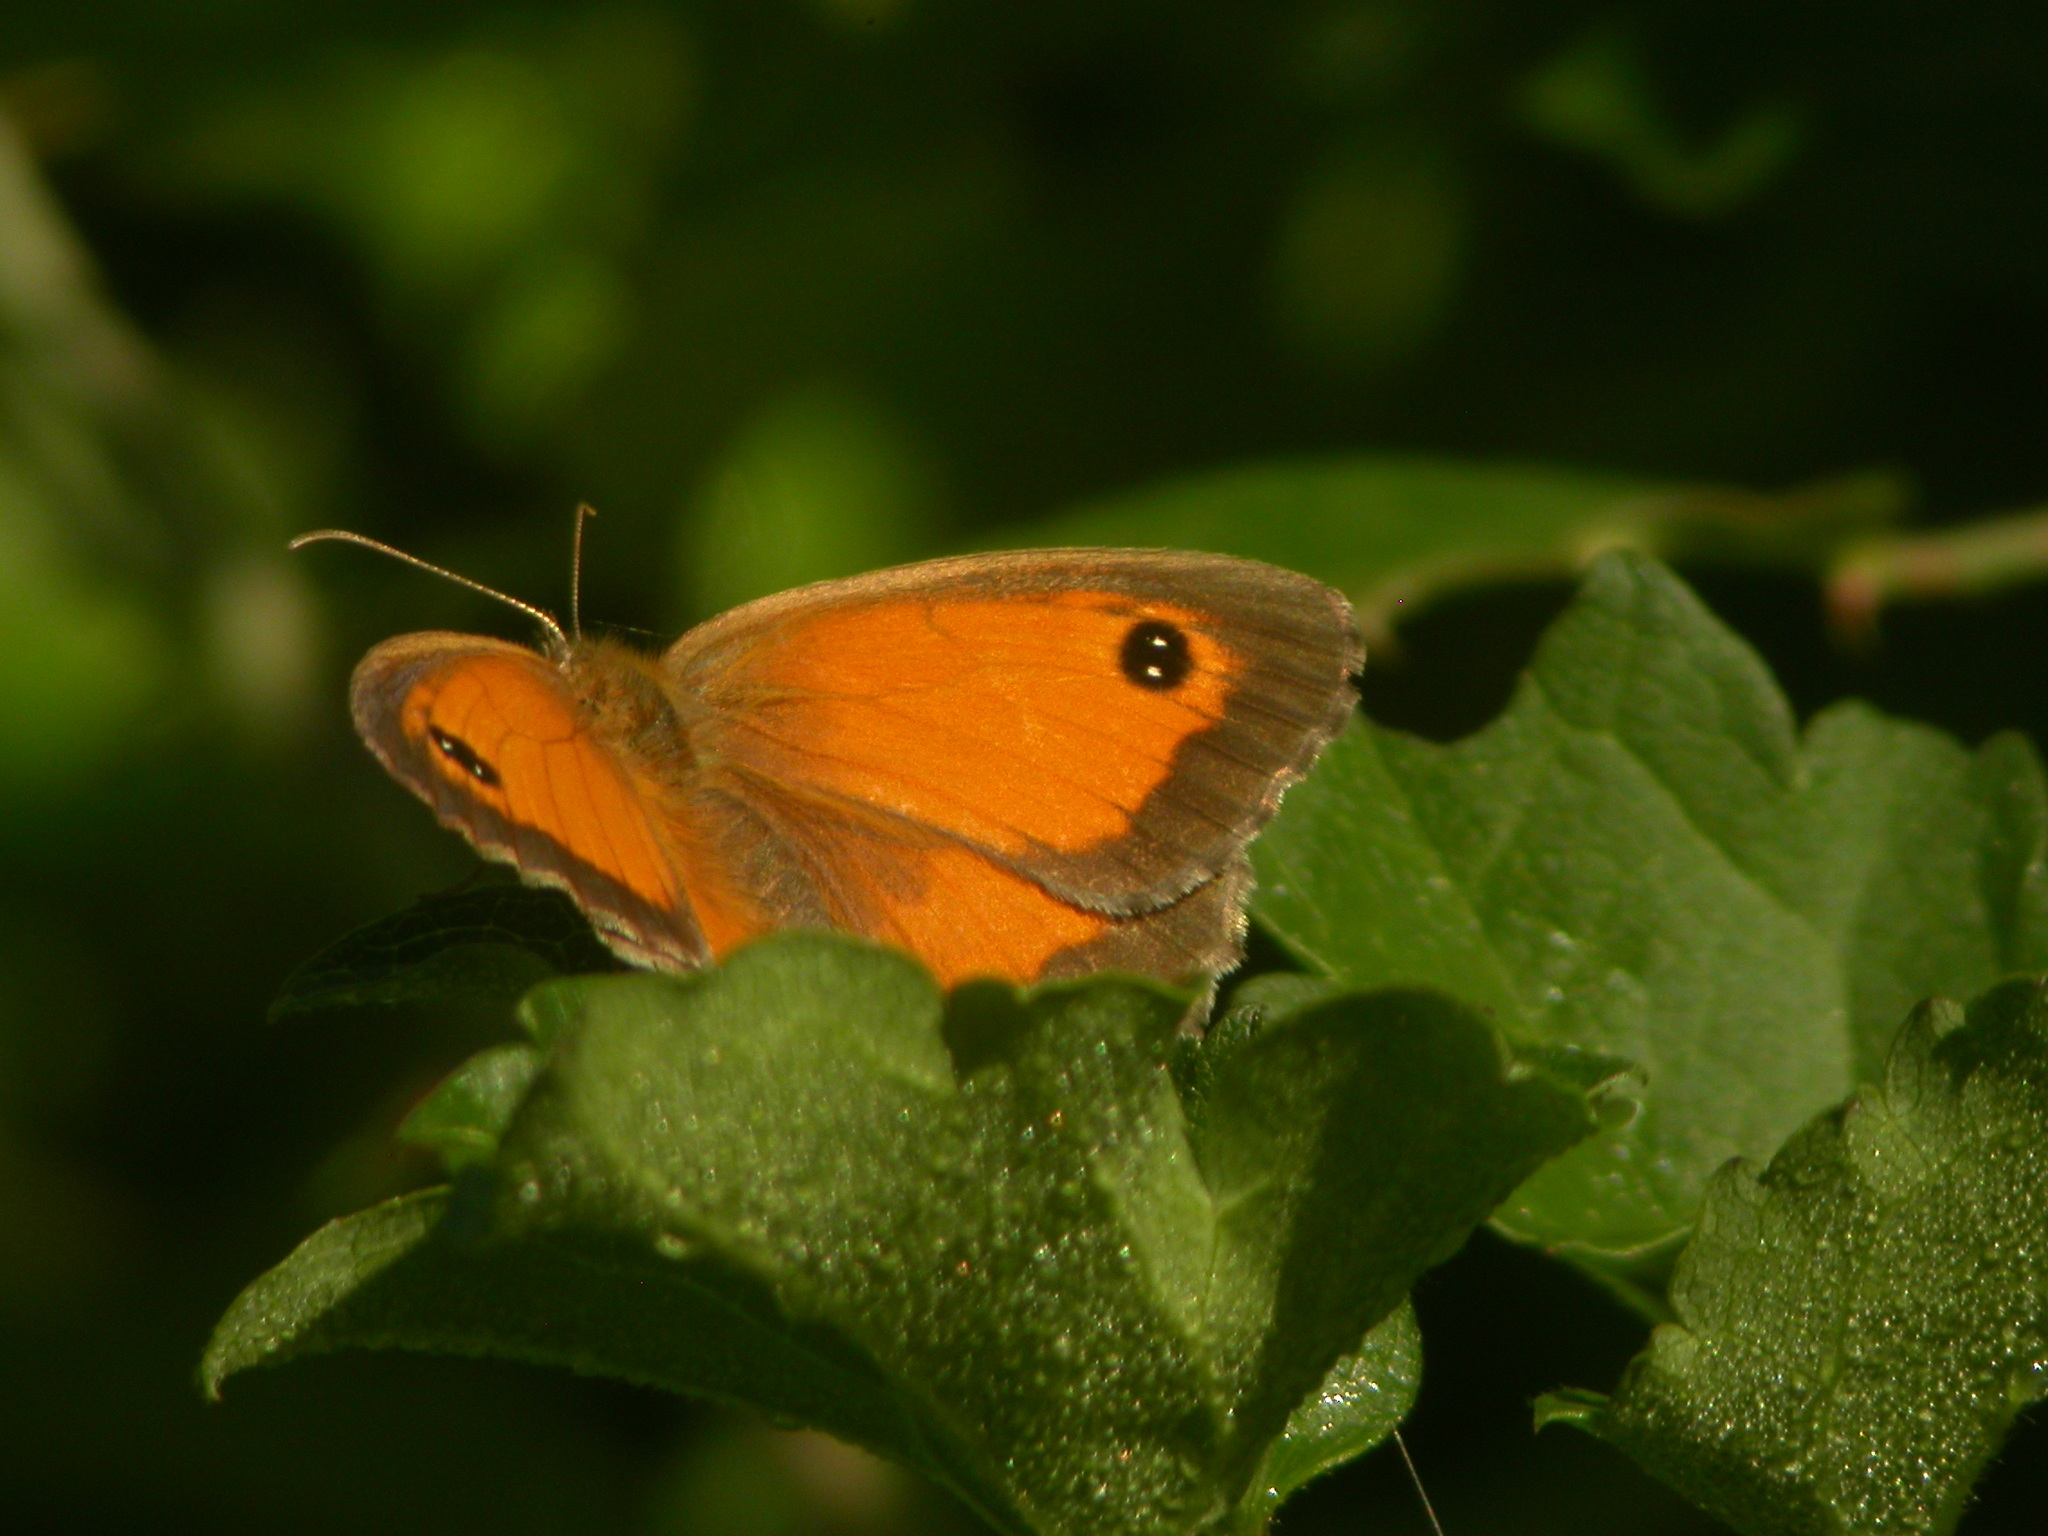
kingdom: Animalia
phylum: Arthropoda
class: Insecta
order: Lepidoptera
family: Nymphalidae
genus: Pyronia
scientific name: Pyronia tithonus
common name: Gatekeeper
